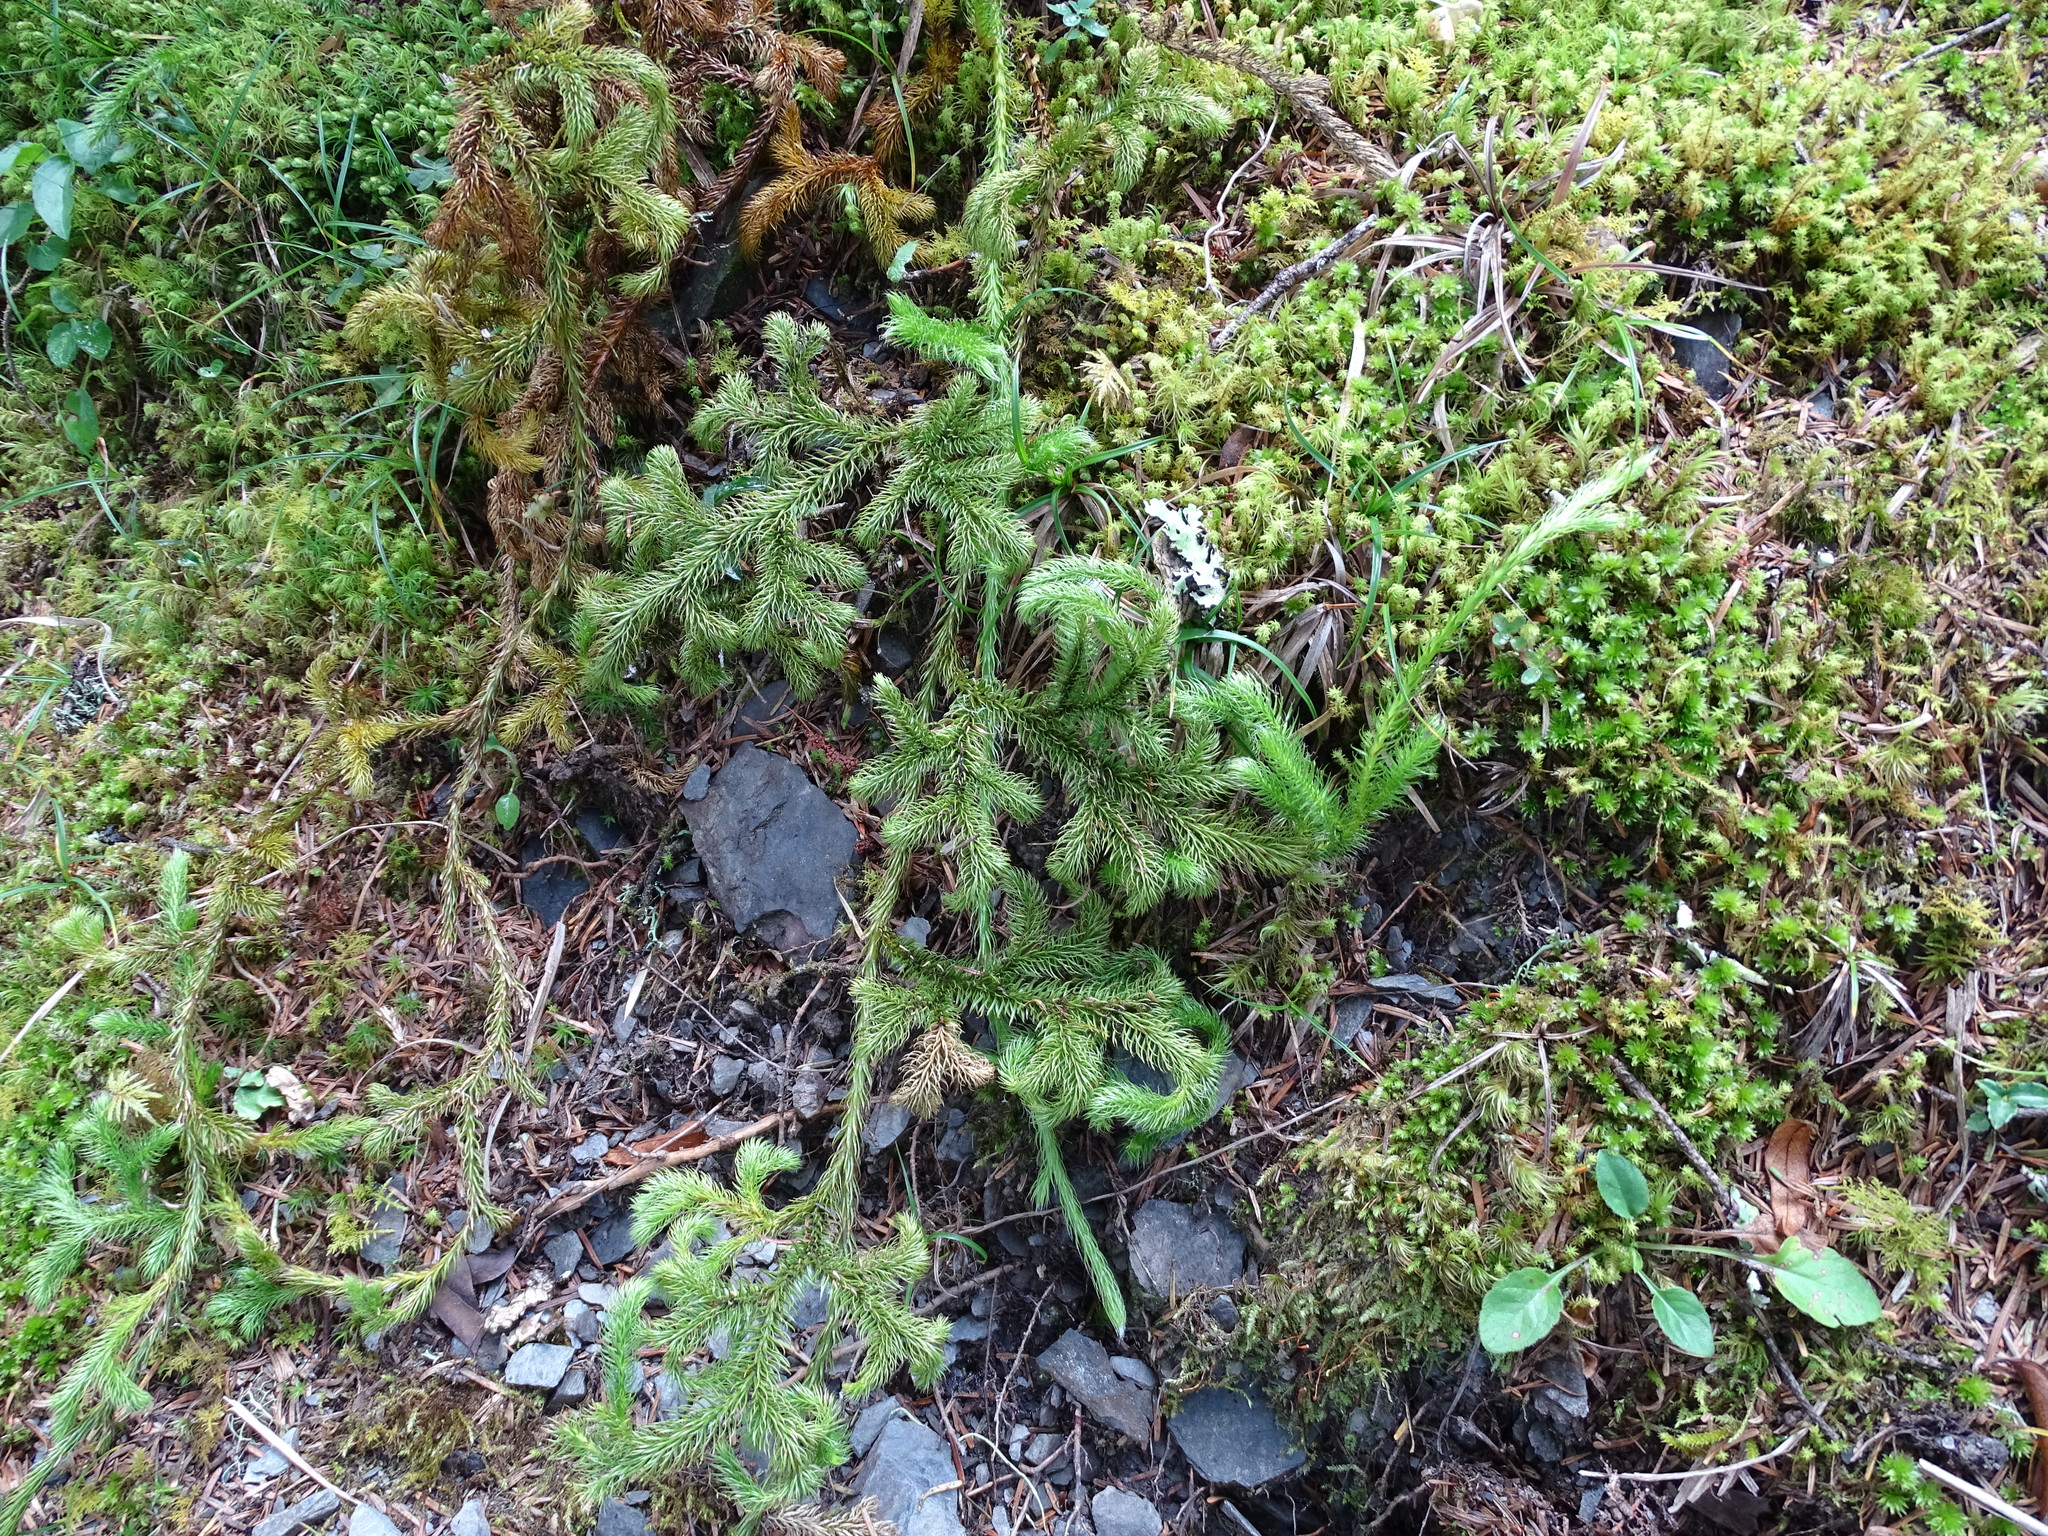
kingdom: Plantae
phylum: Tracheophyta
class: Lycopodiopsida
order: Lycopodiales
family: Lycopodiaceae
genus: Lycopodium
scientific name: Lycopodium clavatum
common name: Stag's-horn clubmoss
